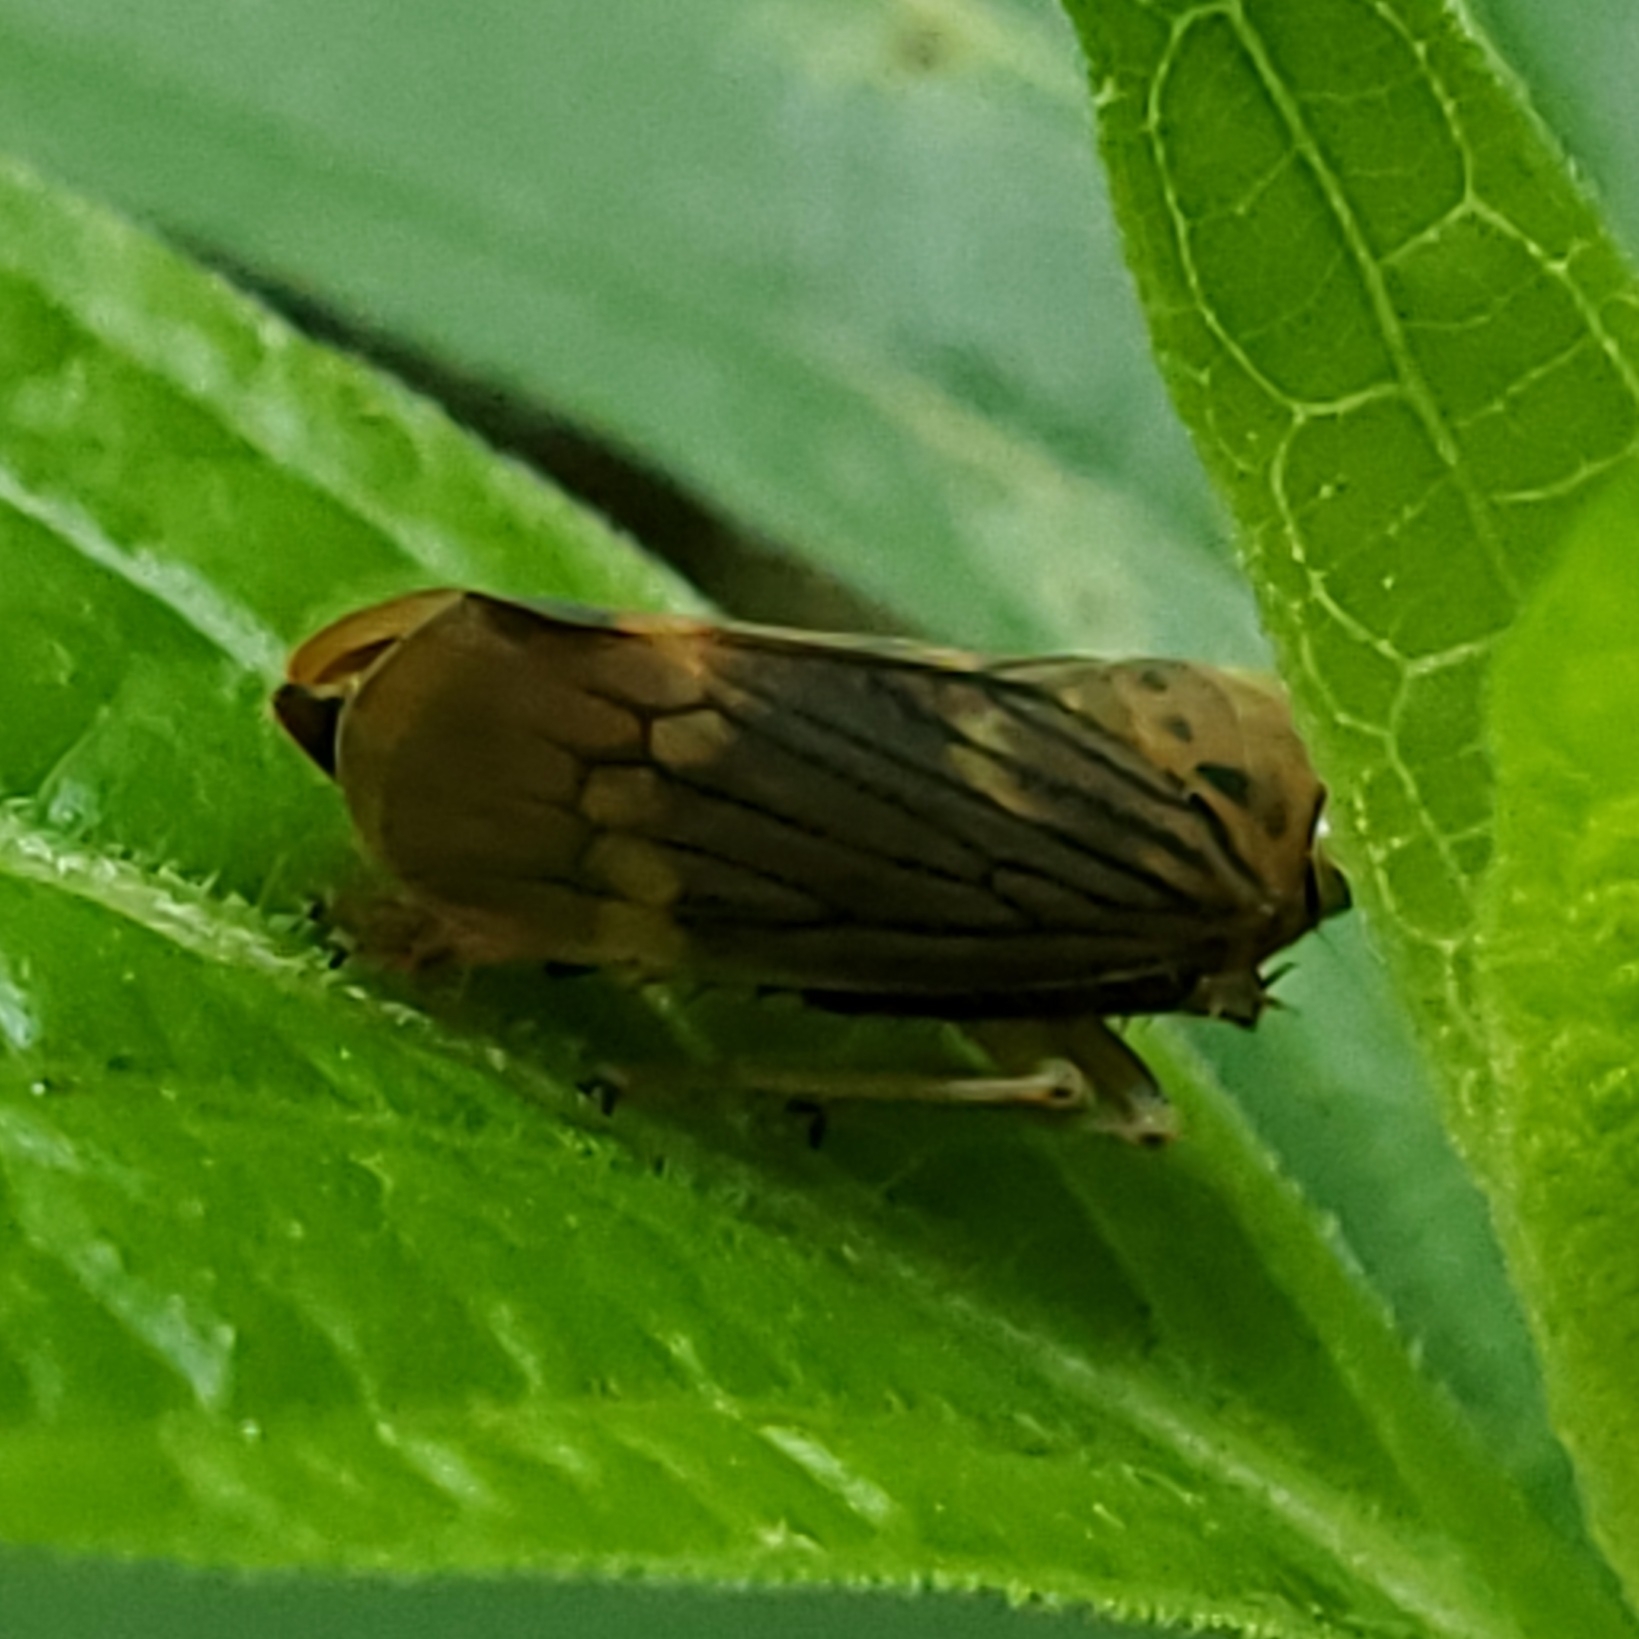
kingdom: Animalia
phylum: Arthropoda
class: Insecta
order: Hemiptera
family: Cicadellidae
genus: Jikradia
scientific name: Jikradia olitoria
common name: Coppery leafhopper
